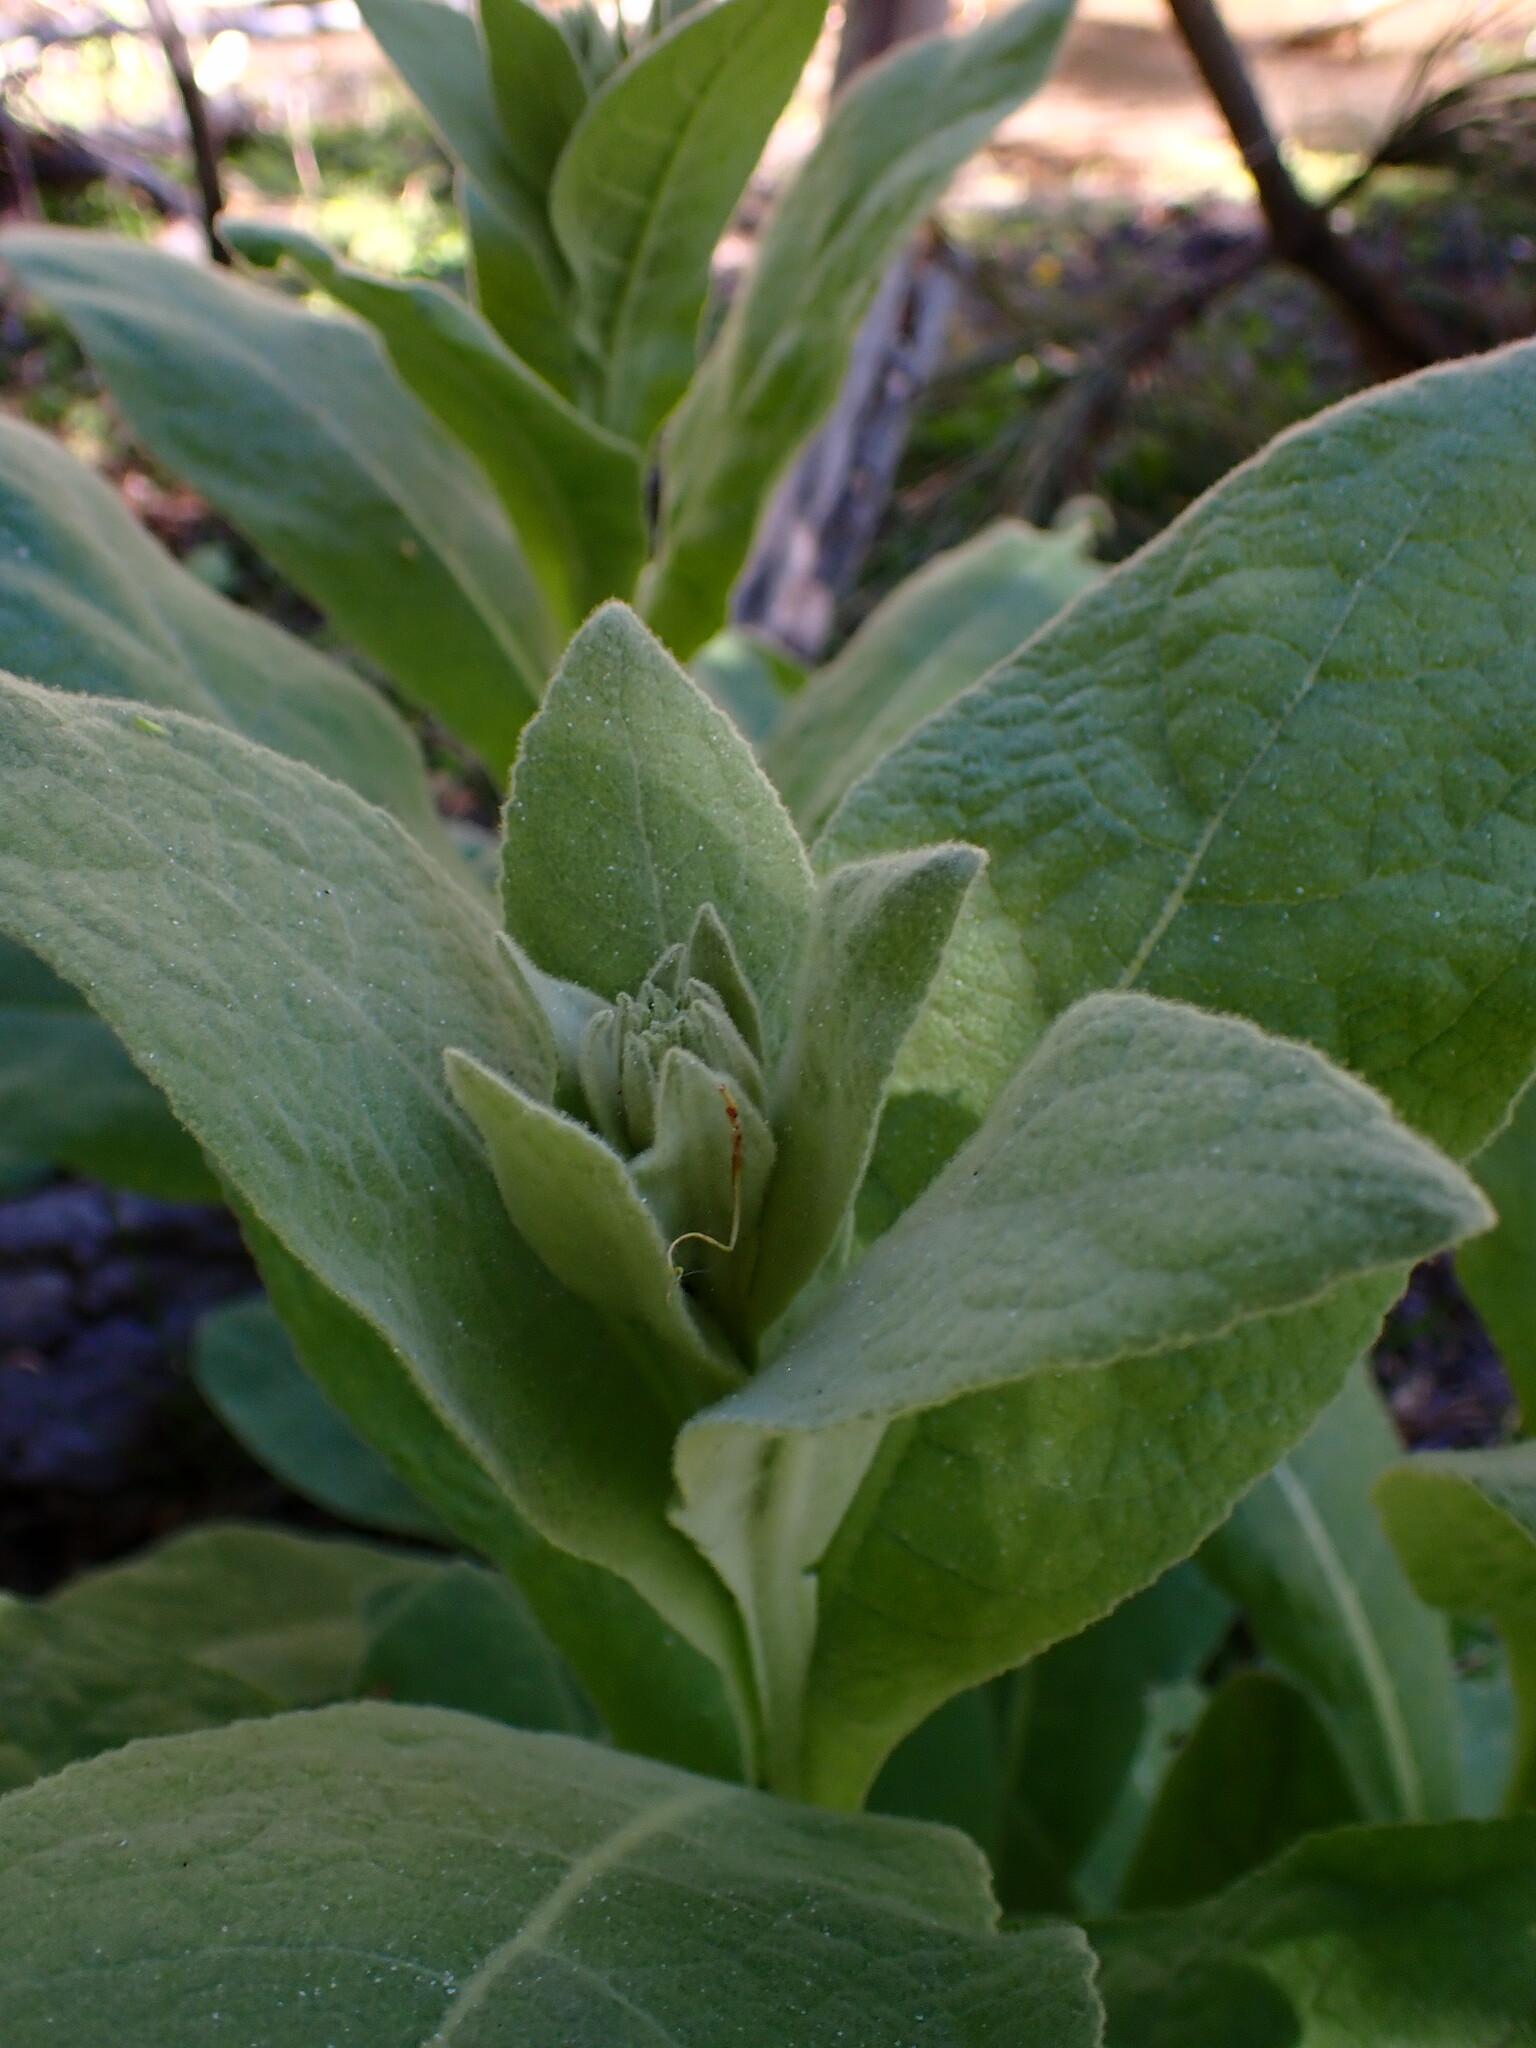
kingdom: Plantae
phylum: Tracheophyta
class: Magnoliopsida
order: Lamiales
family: Scrophulariaceae
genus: Verbascum
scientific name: Verbascum thapsus
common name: Common mullein
